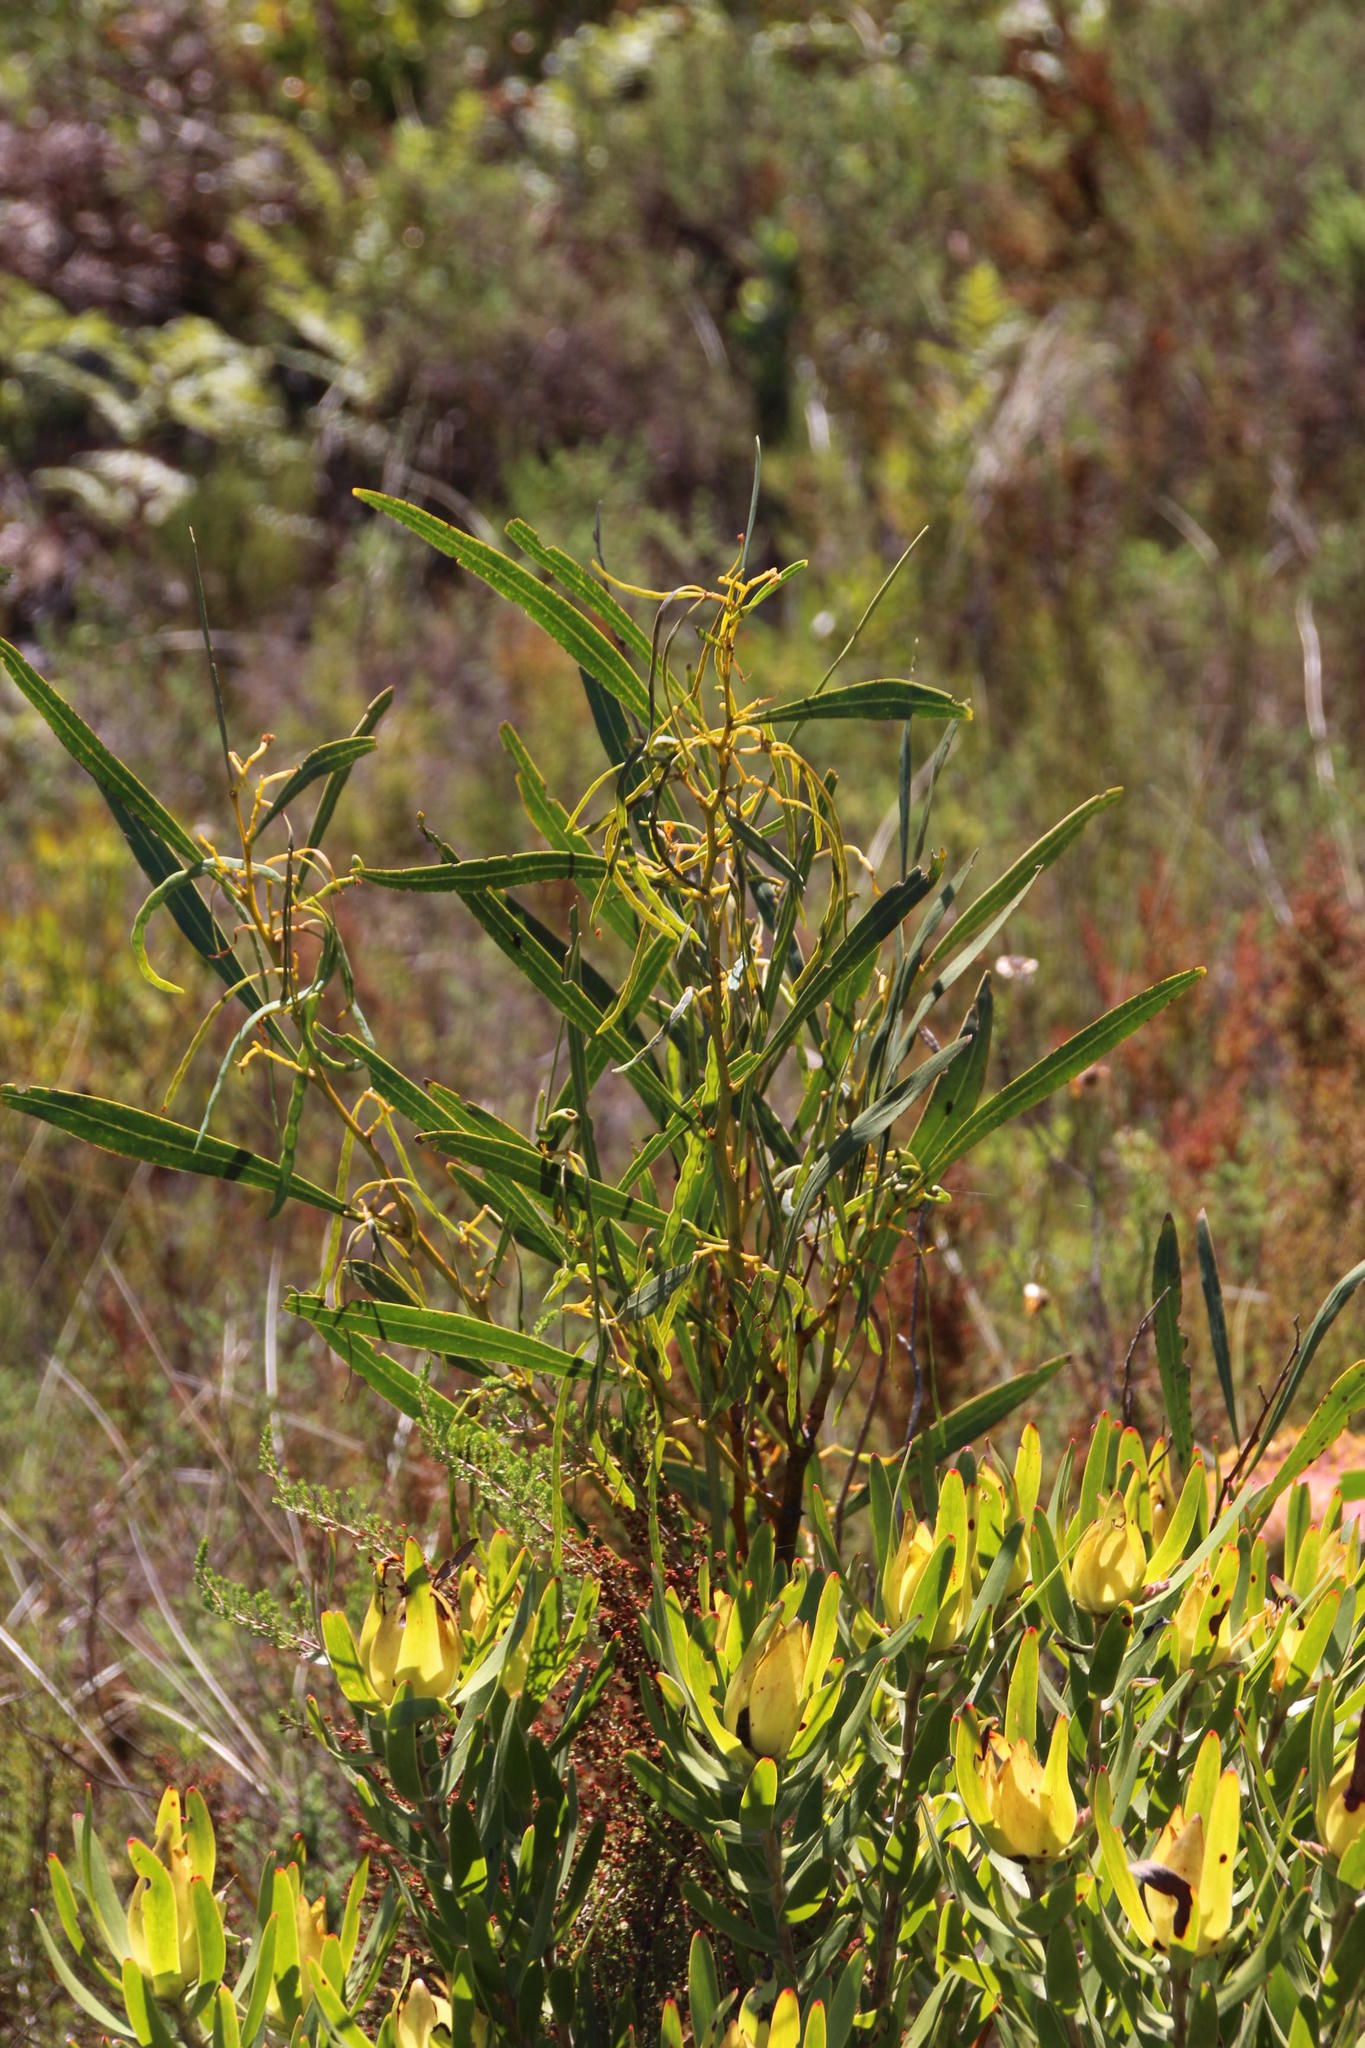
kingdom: Plantae
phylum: Tracheophyta
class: Magnoliopsida
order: Fabales
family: Fabaceae
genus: Acacia
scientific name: Acacia saligna
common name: Orange wattle
